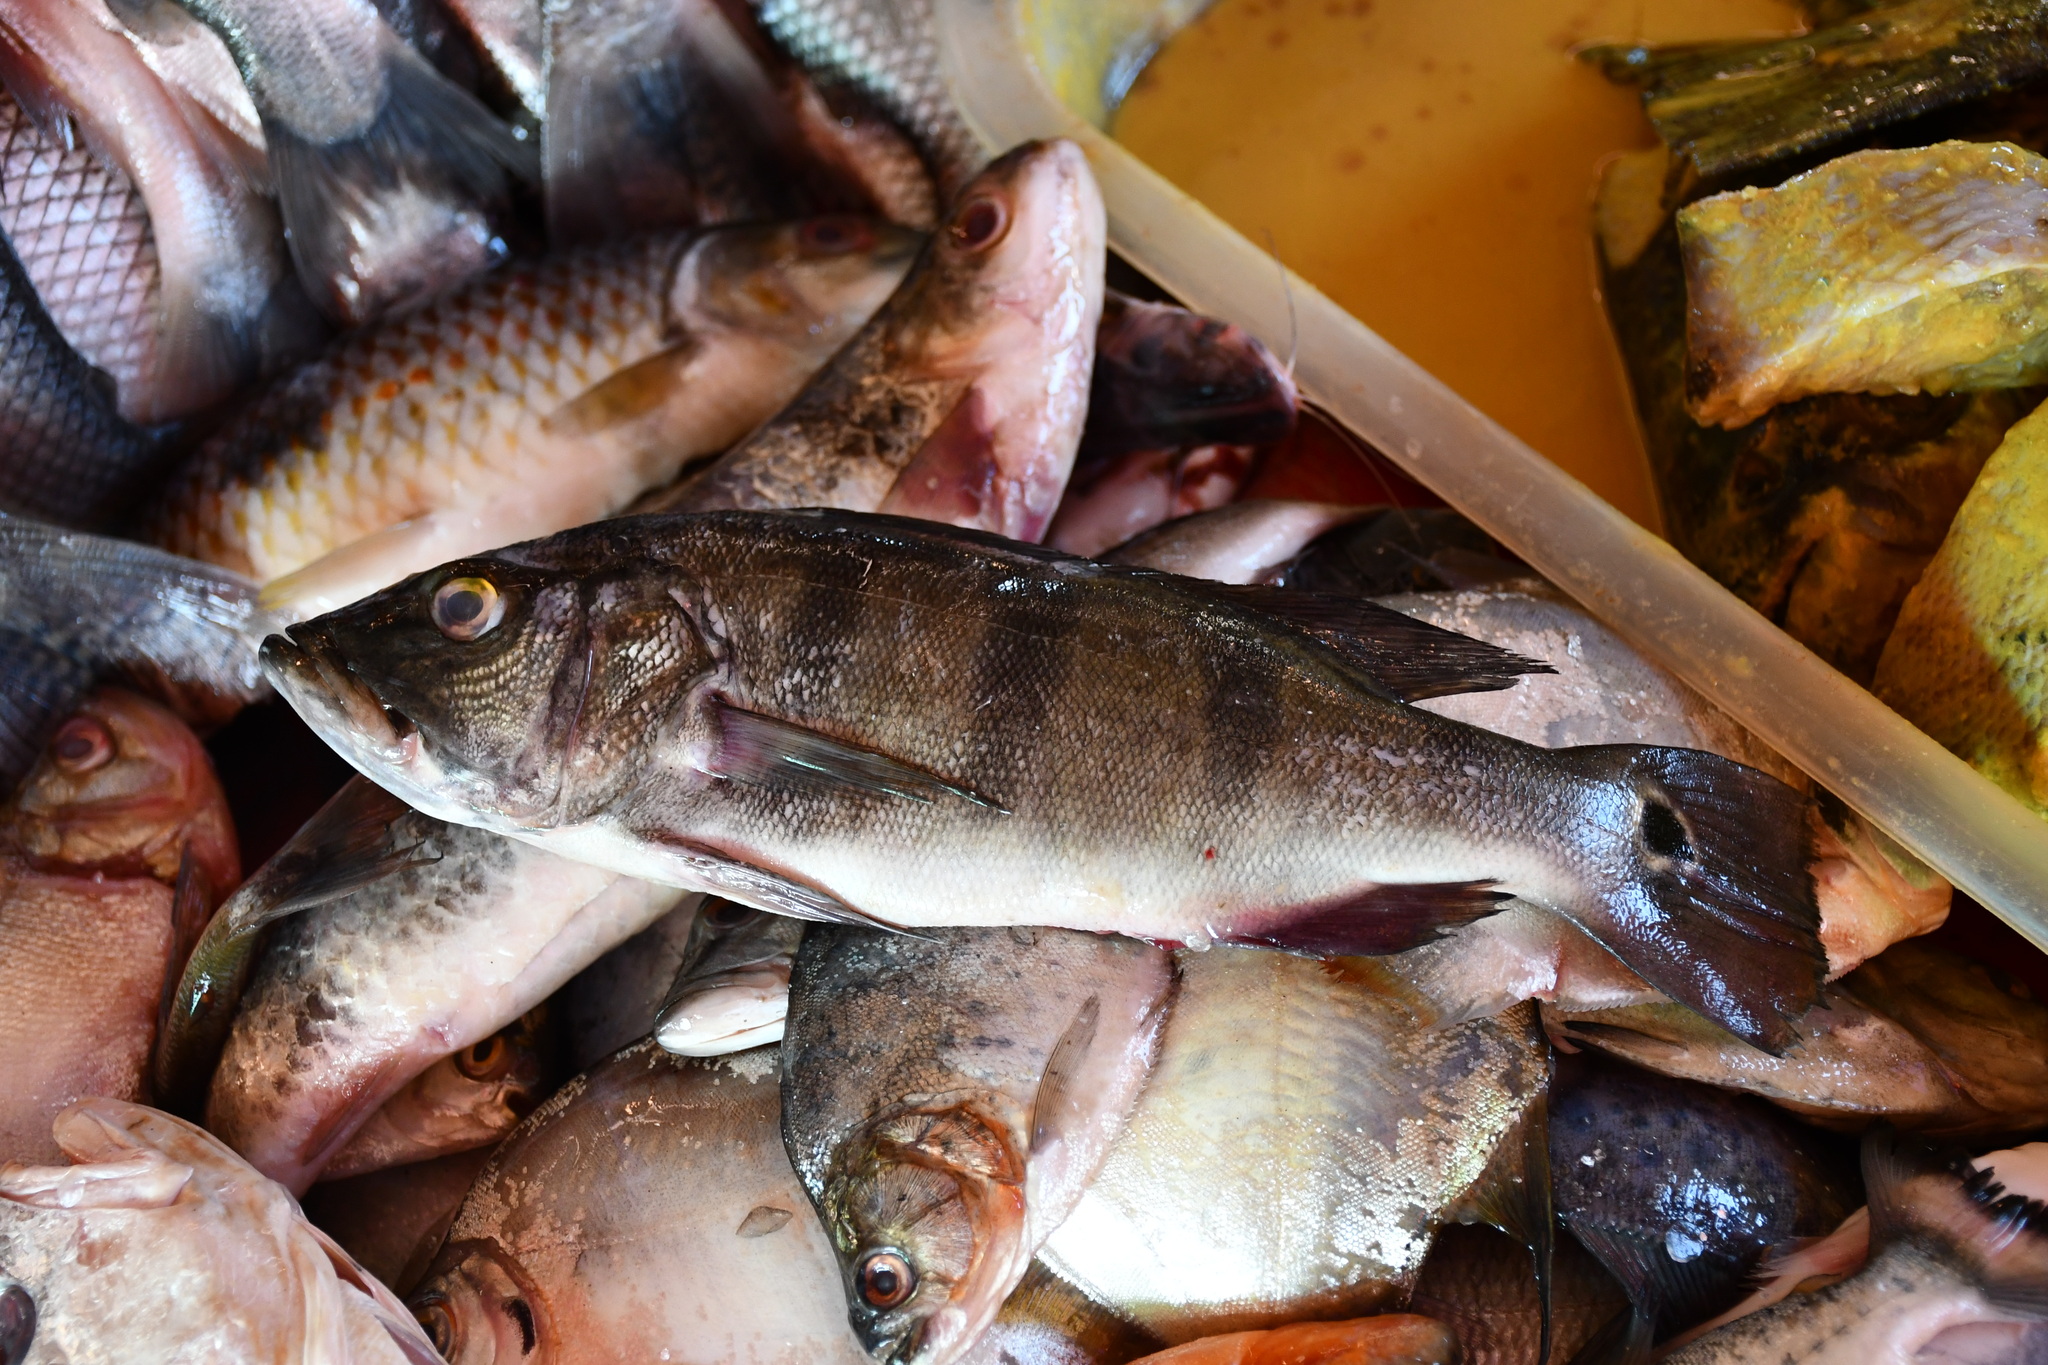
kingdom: Animalia
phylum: Chordata
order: Perciformes
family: Cichlidae
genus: Cichla
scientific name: Cichla pleiozona
